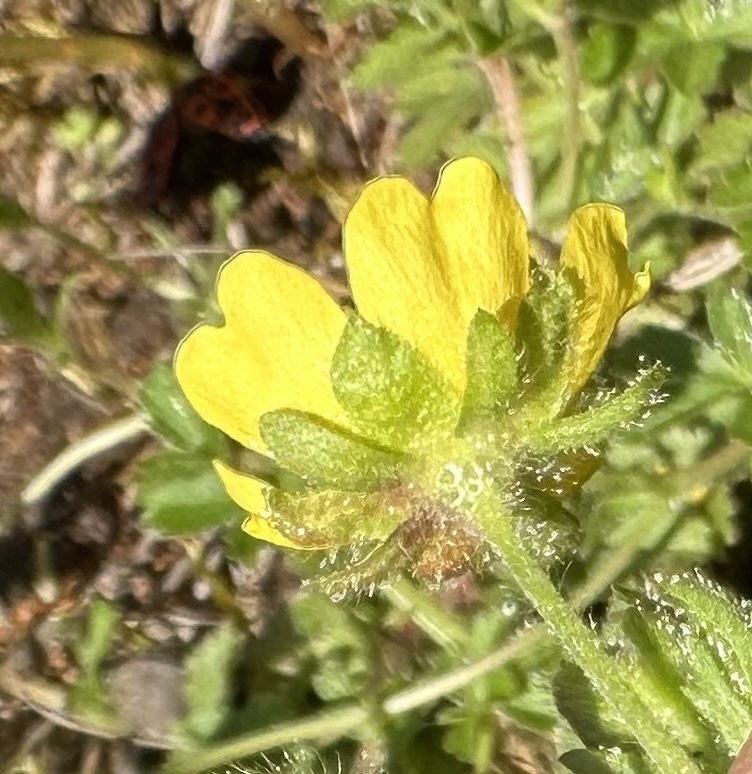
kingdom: Plantae
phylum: Tracheophyta
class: Magnoliopsida
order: Rosales
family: Rosaceae
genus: Potentilla
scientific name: Potentilla verna
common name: Spring cinquefoil
